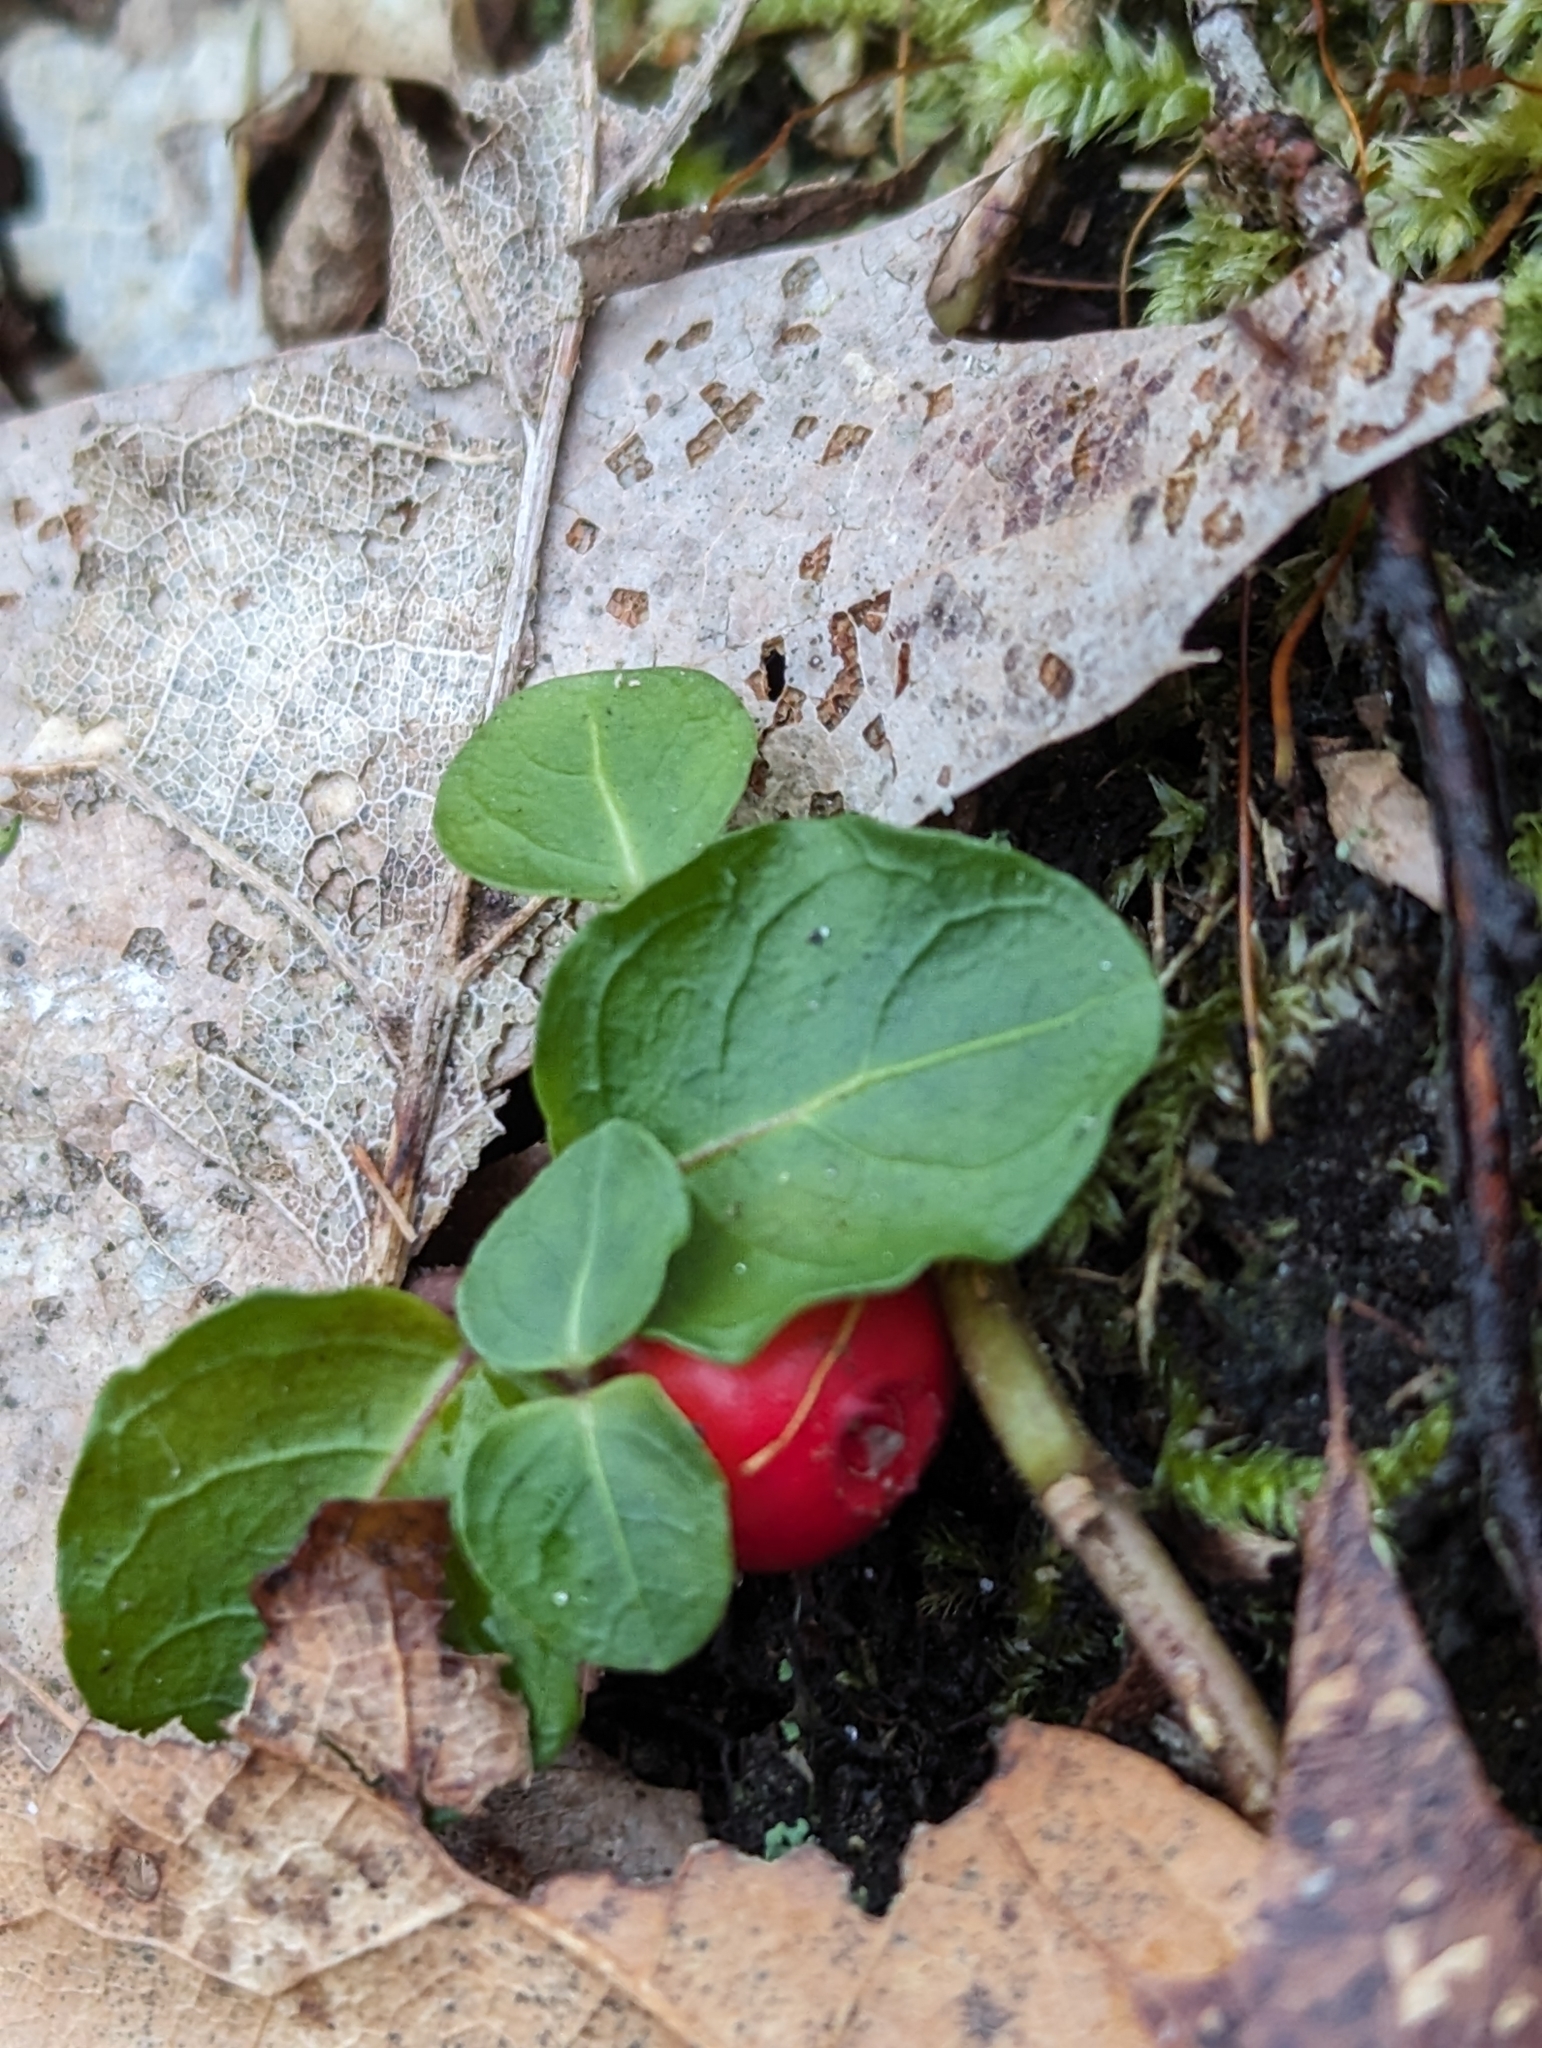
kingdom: Plantae
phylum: Tracheophyta
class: Magnoliopsida
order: Gentianales
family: Rubiaceae
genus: Mitchella
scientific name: Mitchella repens
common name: Partridge-berry
